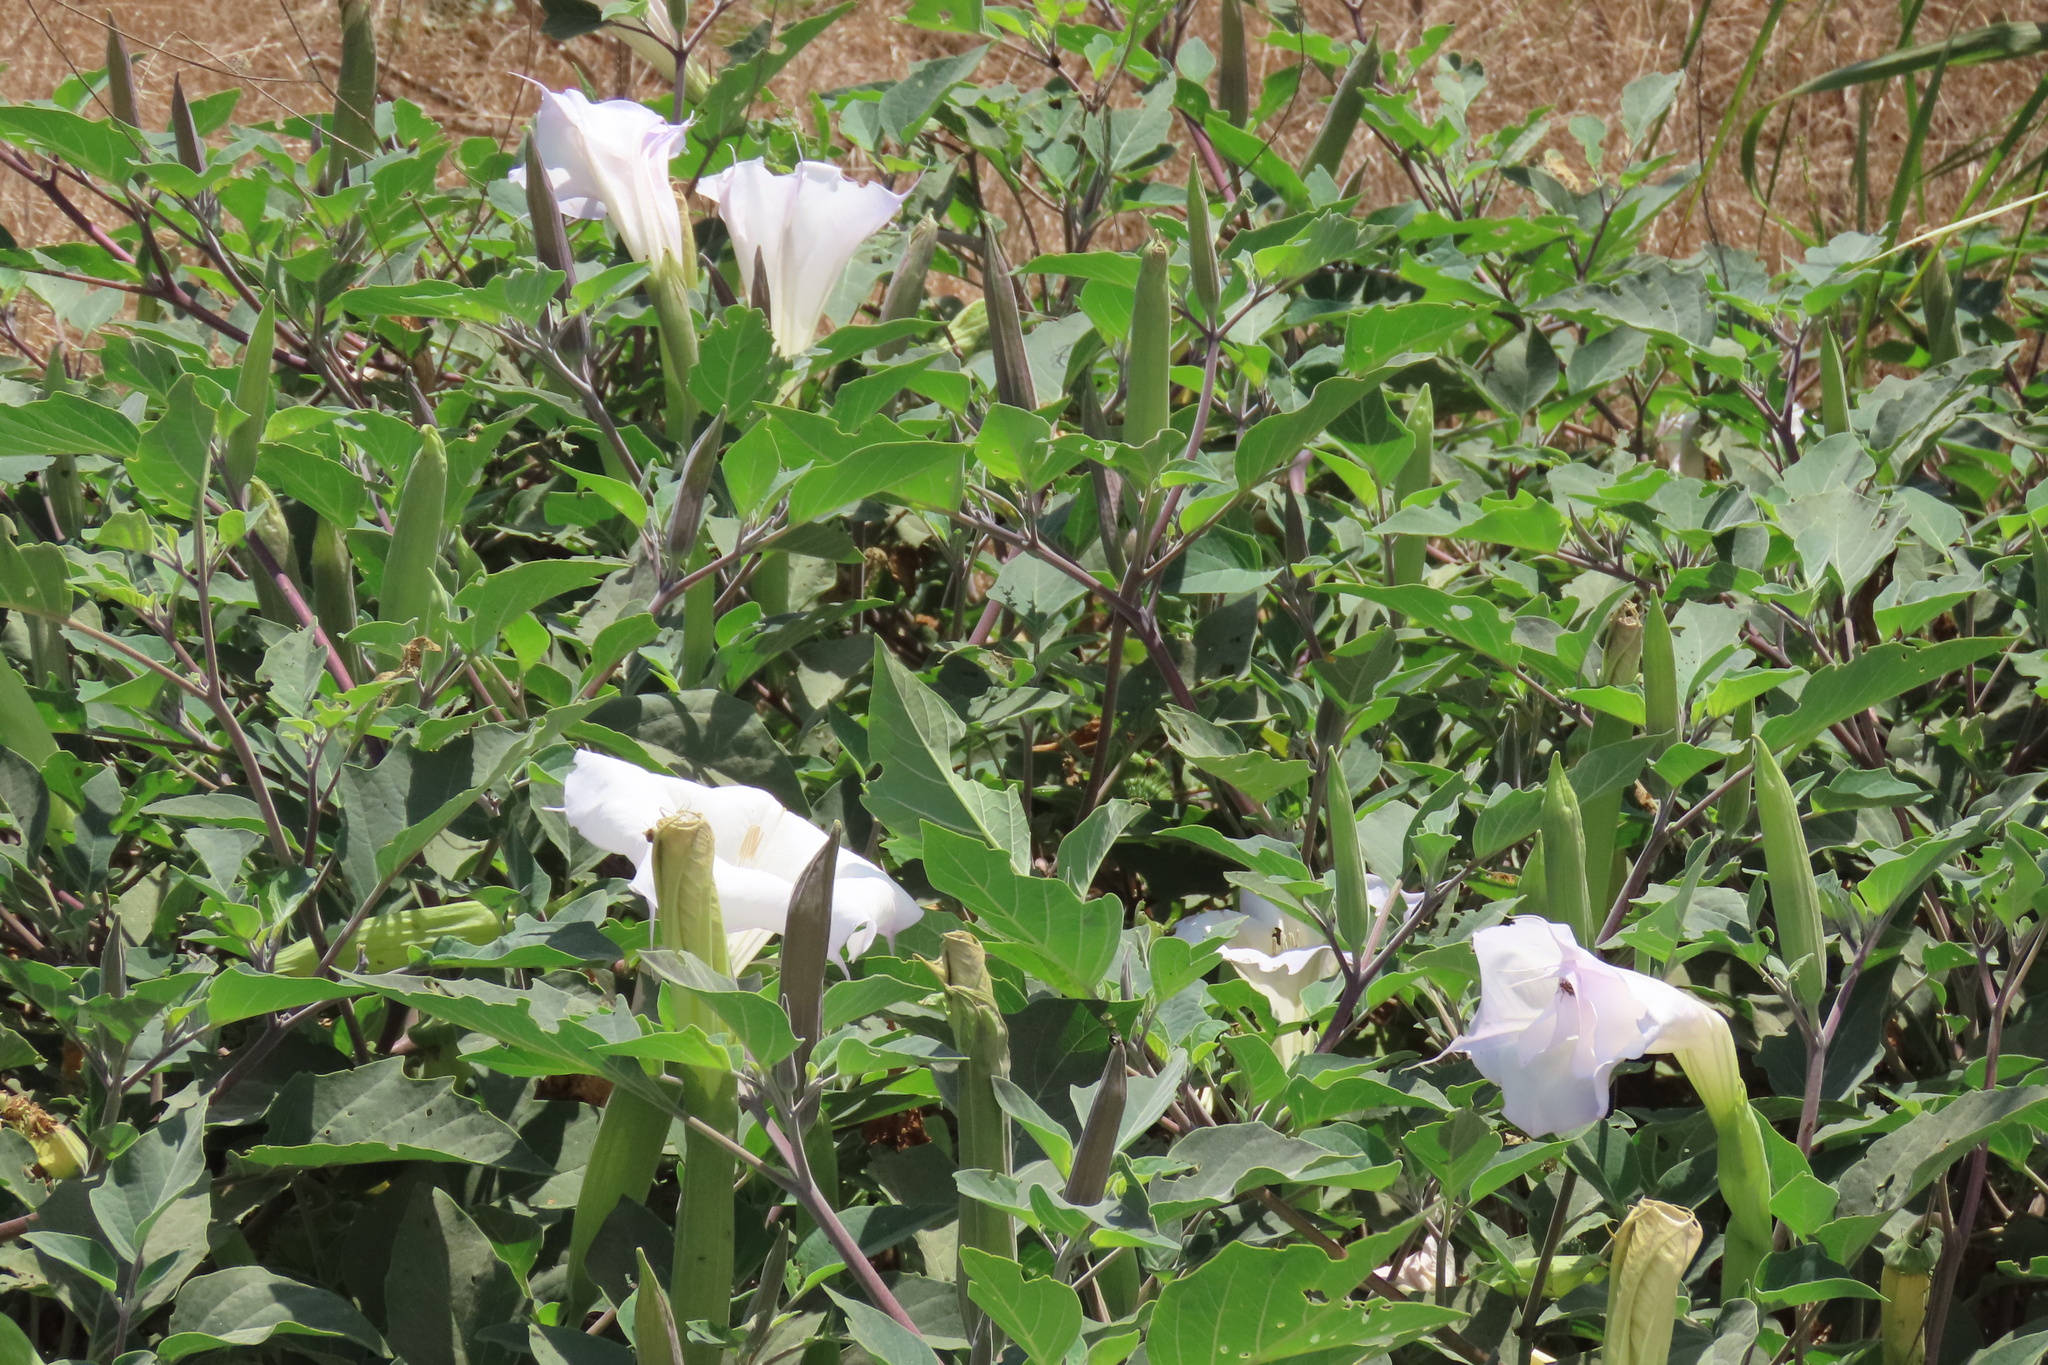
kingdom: Plantae
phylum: Tracheophyta
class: Magnoliopsida
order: Solanales
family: Solanaceae
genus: Datura
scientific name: Datura wrightii
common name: Sacred thorn-apple
